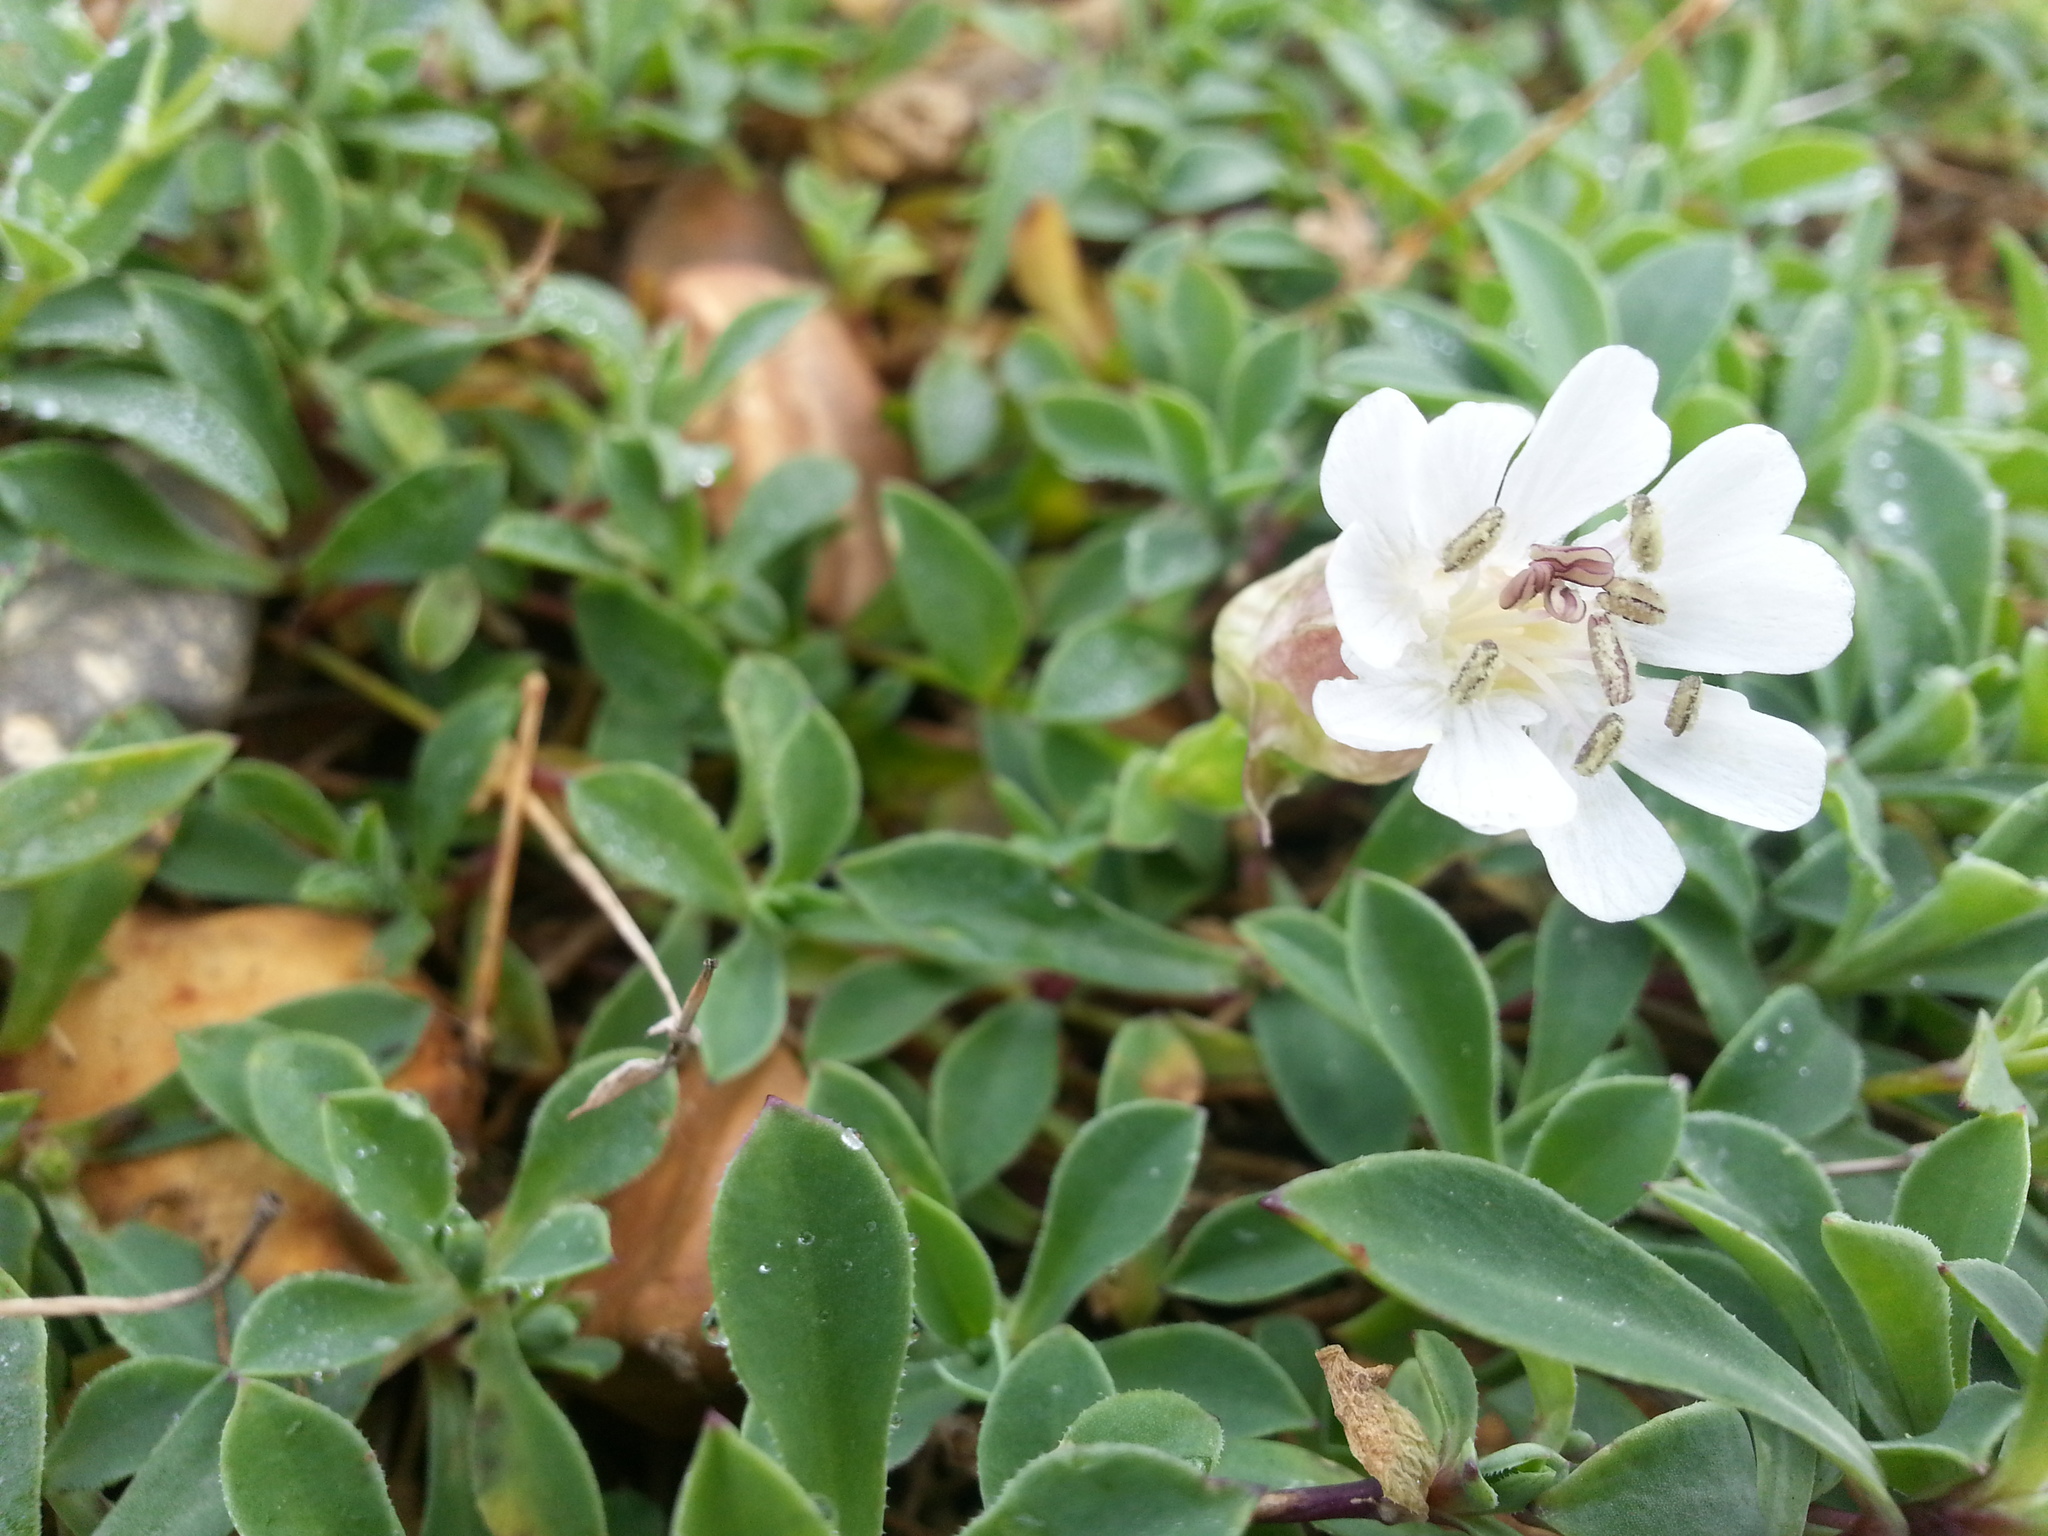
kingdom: Plantae
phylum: Tracheophyta
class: Magnoliopsida
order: Caryophyllales
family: Caryophyllaceae
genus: Silene
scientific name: Silene uniflora
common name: Sea campion
